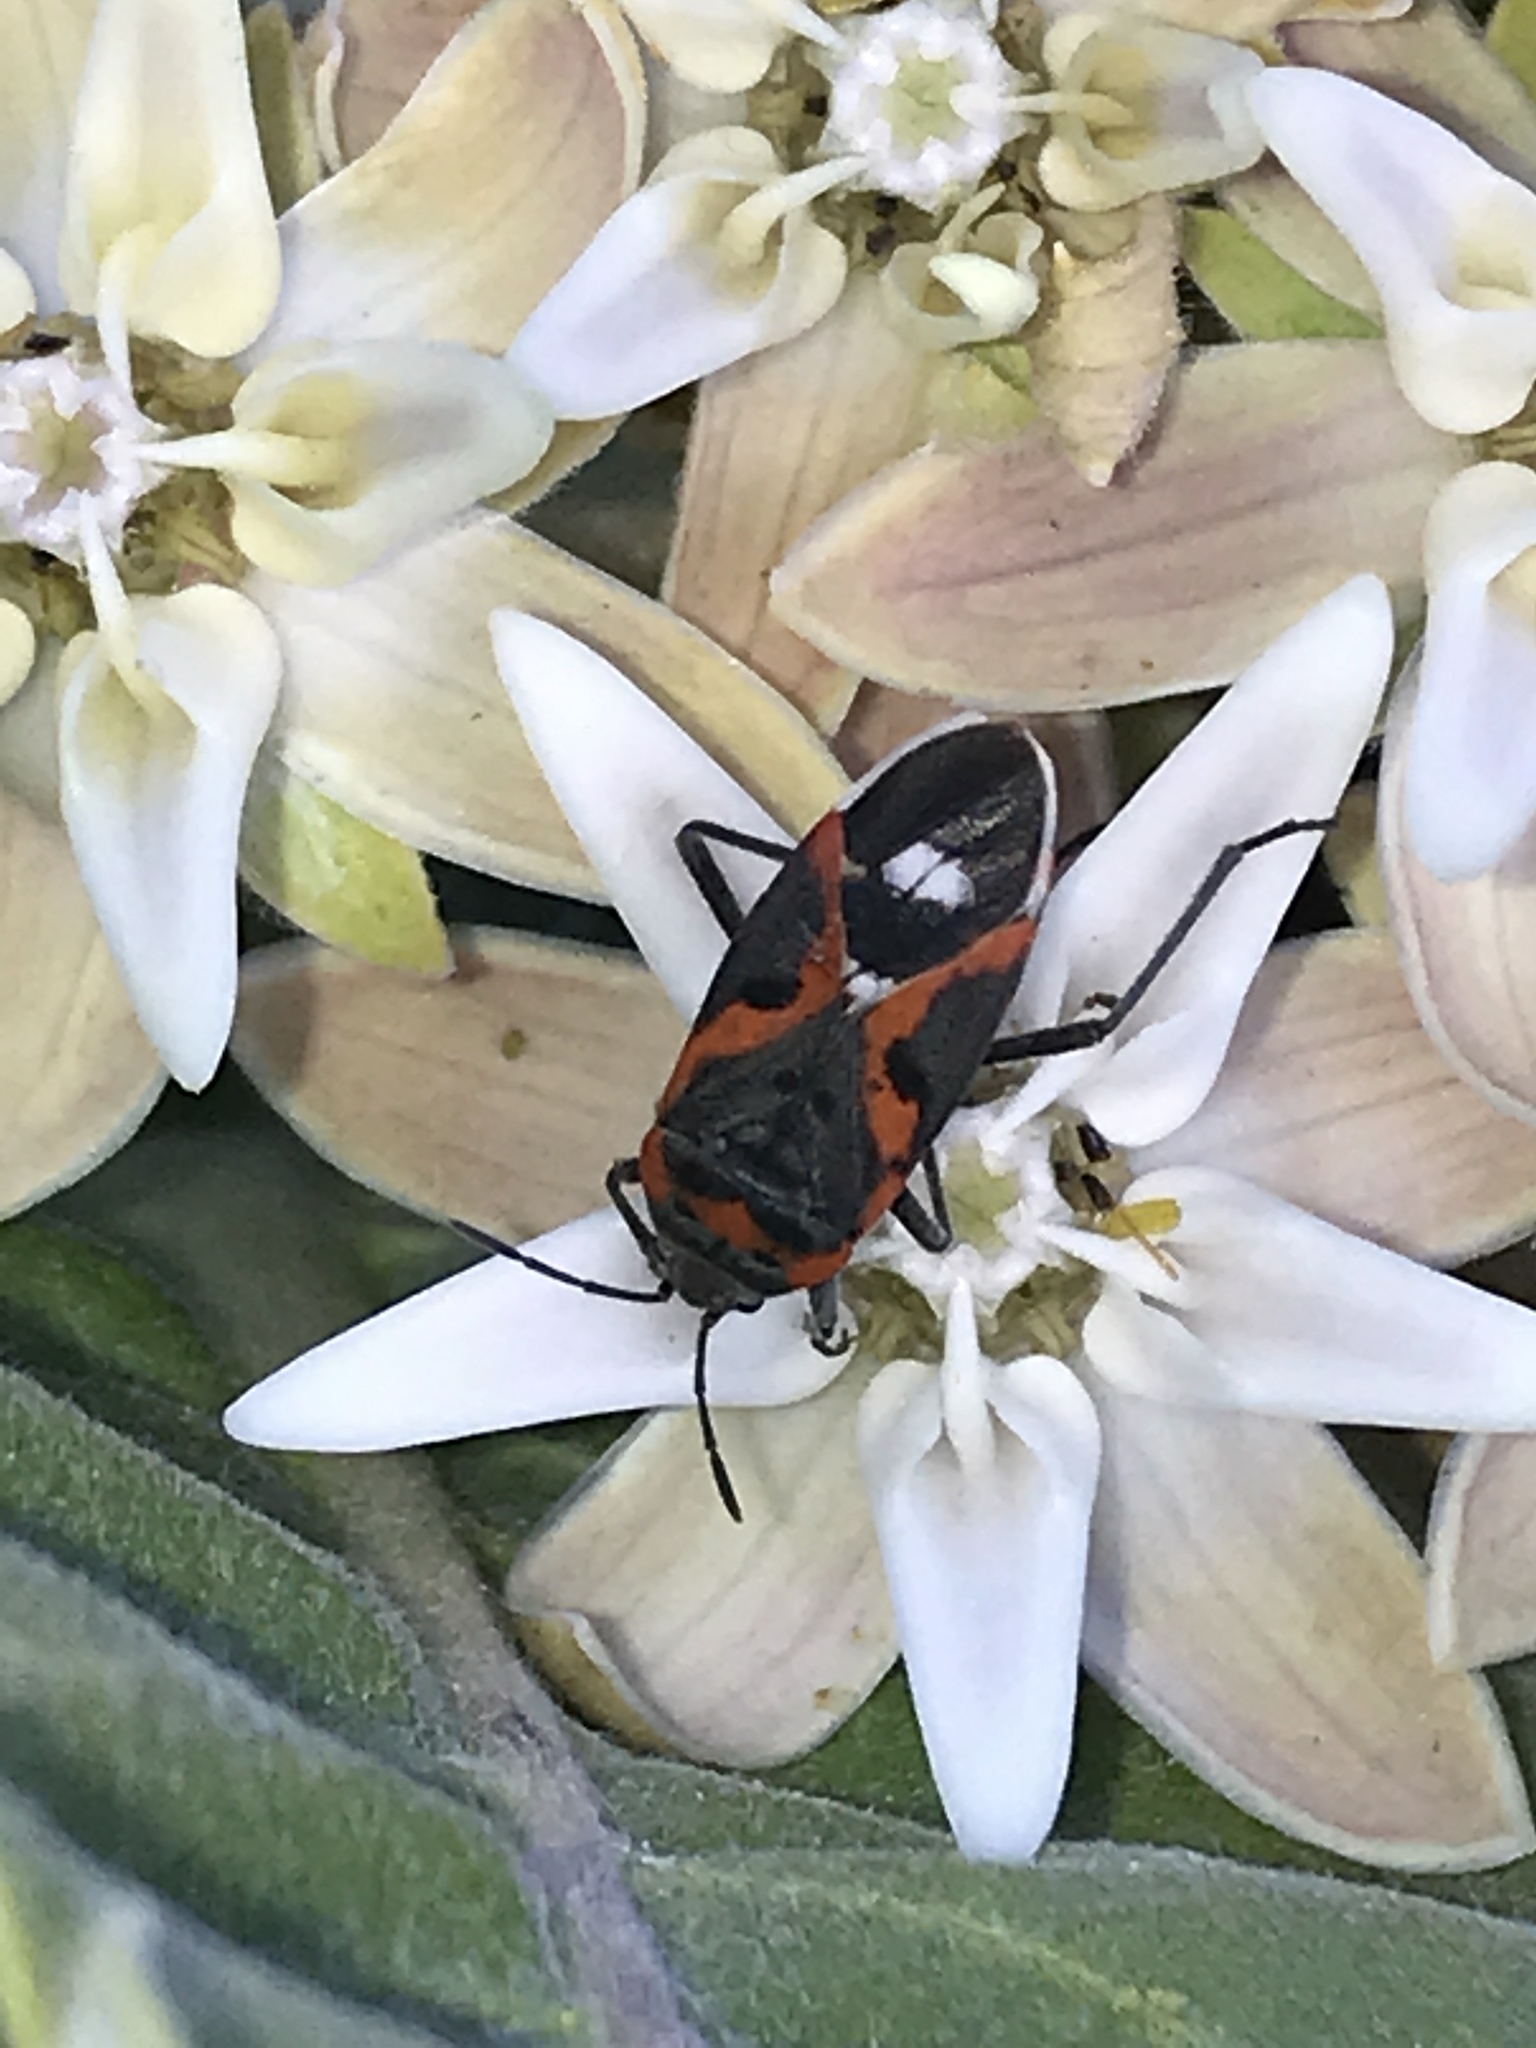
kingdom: Animalia
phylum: Arthropoda
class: Insecta
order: Hemiptera
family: Lygaeidae
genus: Lygaeus
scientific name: Lygaeus kalmii
